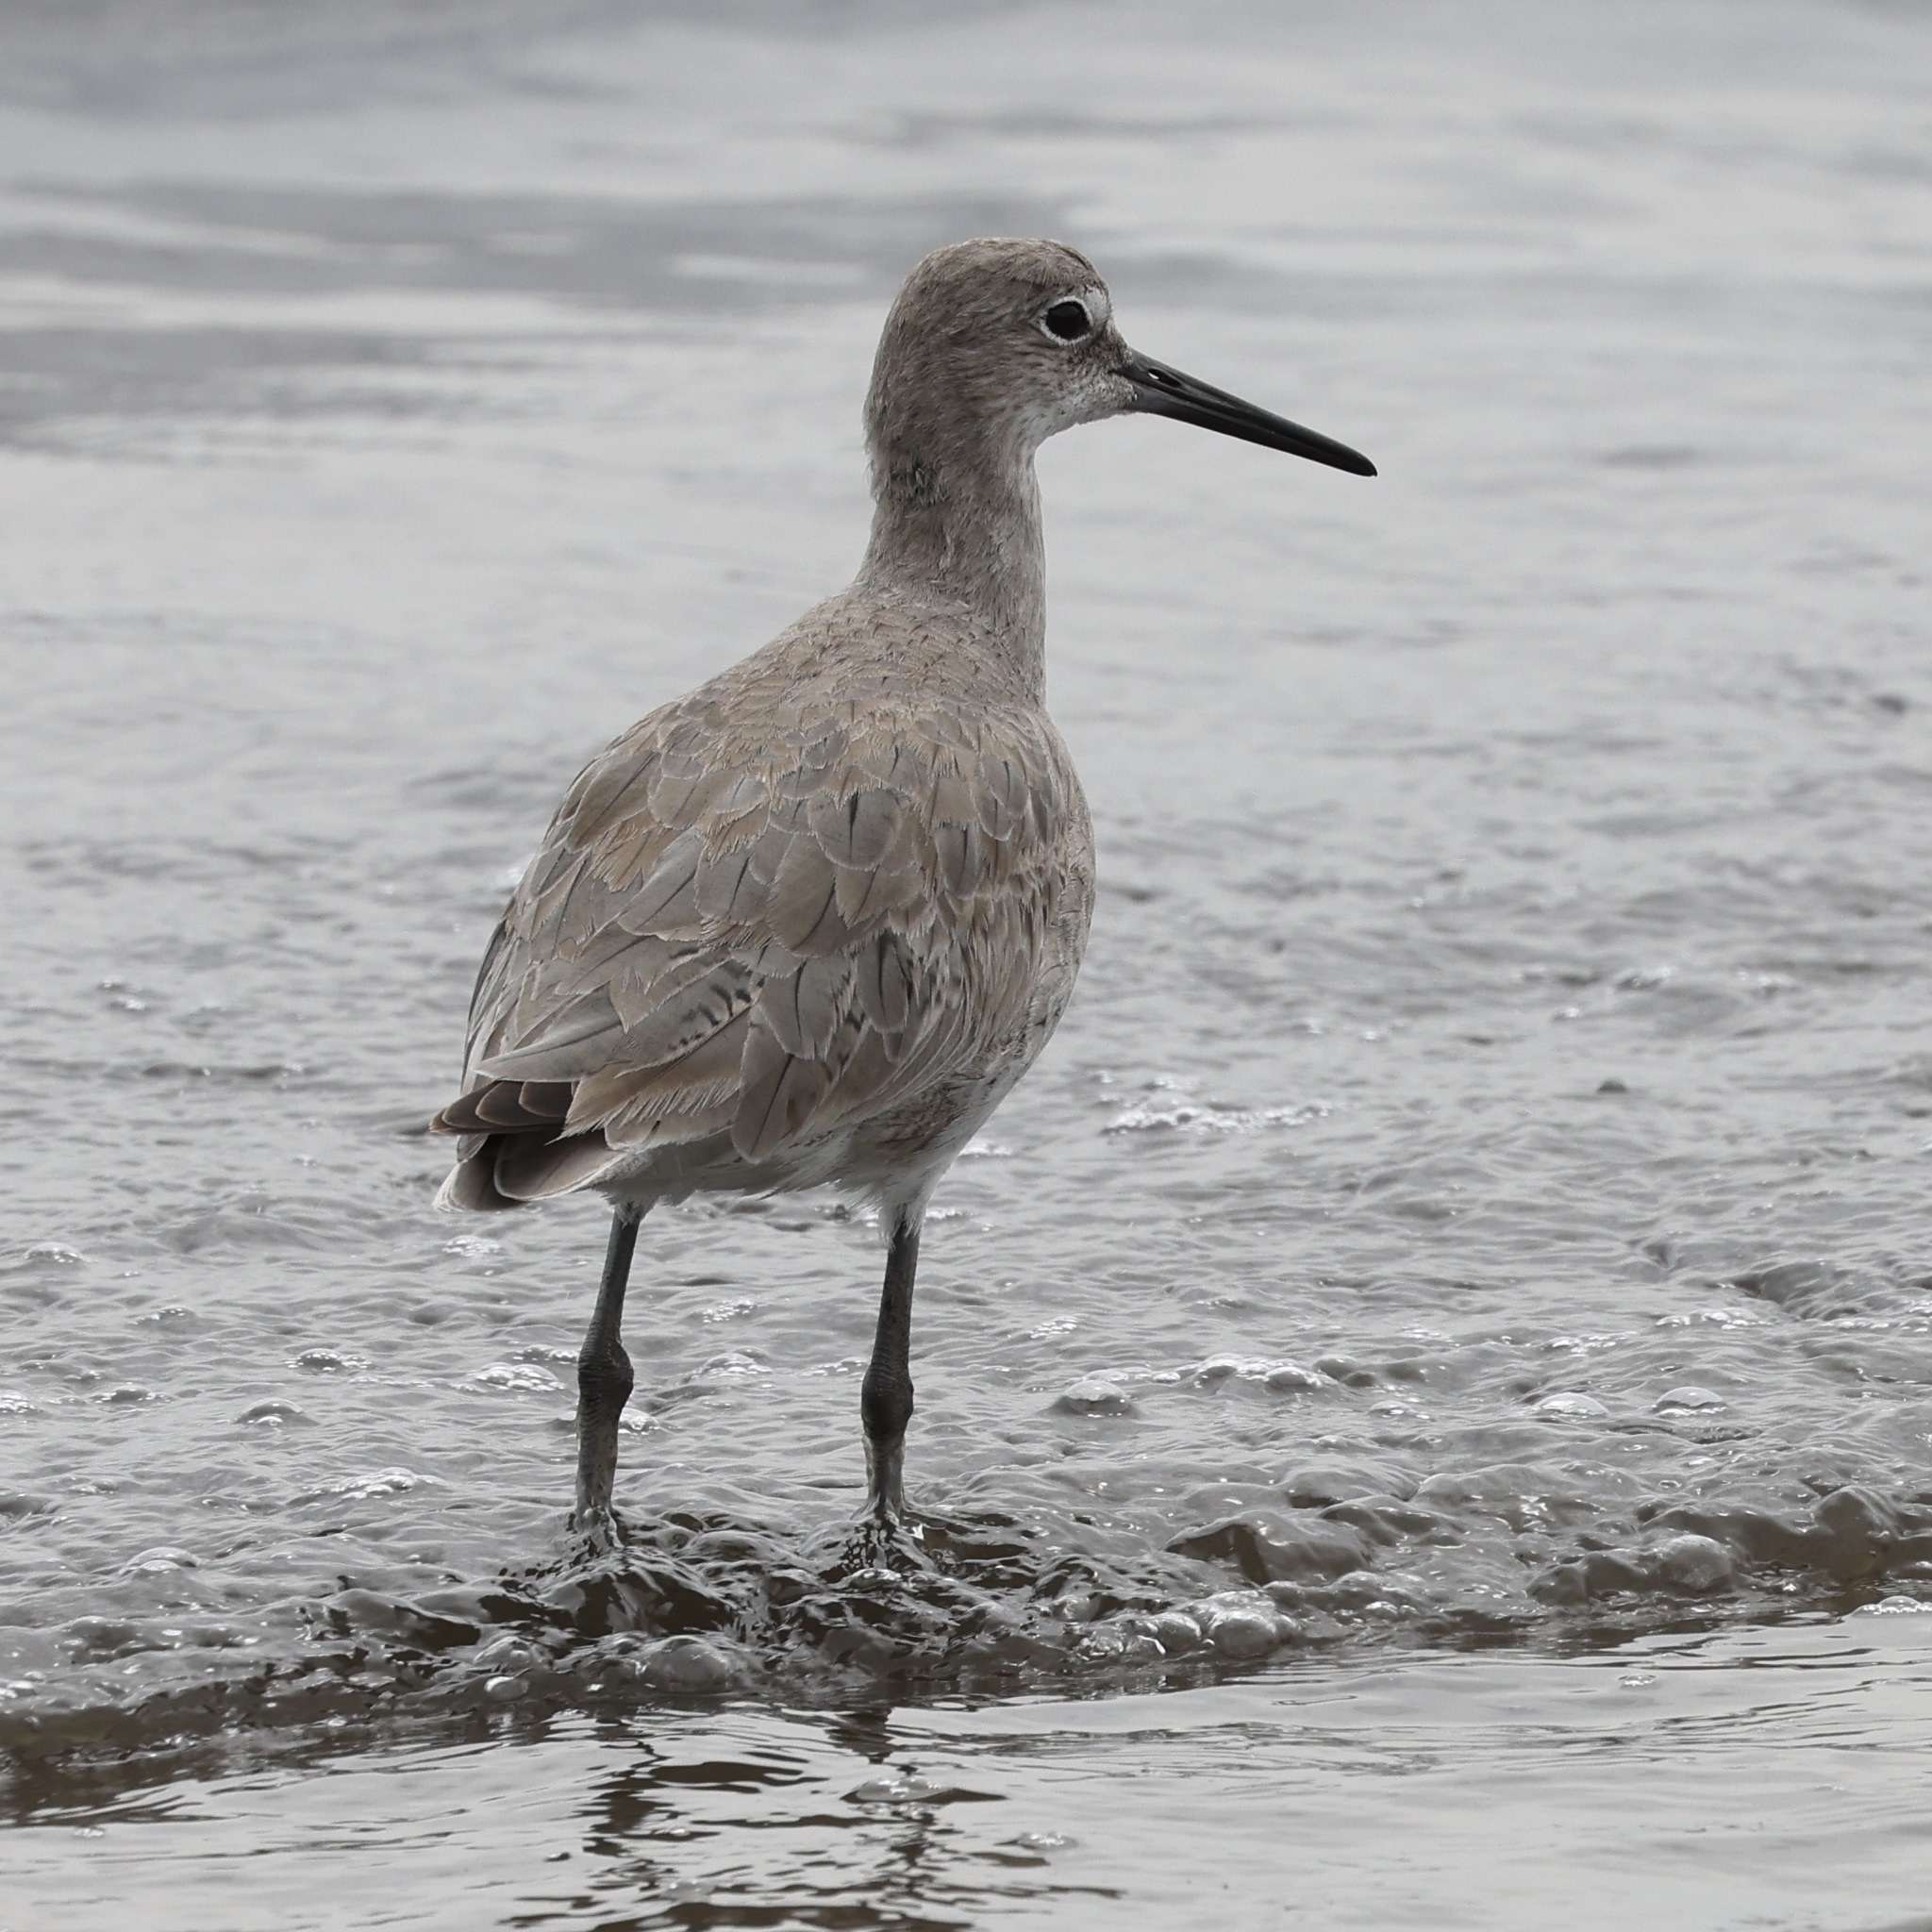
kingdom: Animalia
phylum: Chordata
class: Aves
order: Charadriiformes
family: Scolopacidae
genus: Tringa
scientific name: Tringa semipalmata
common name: Willet
